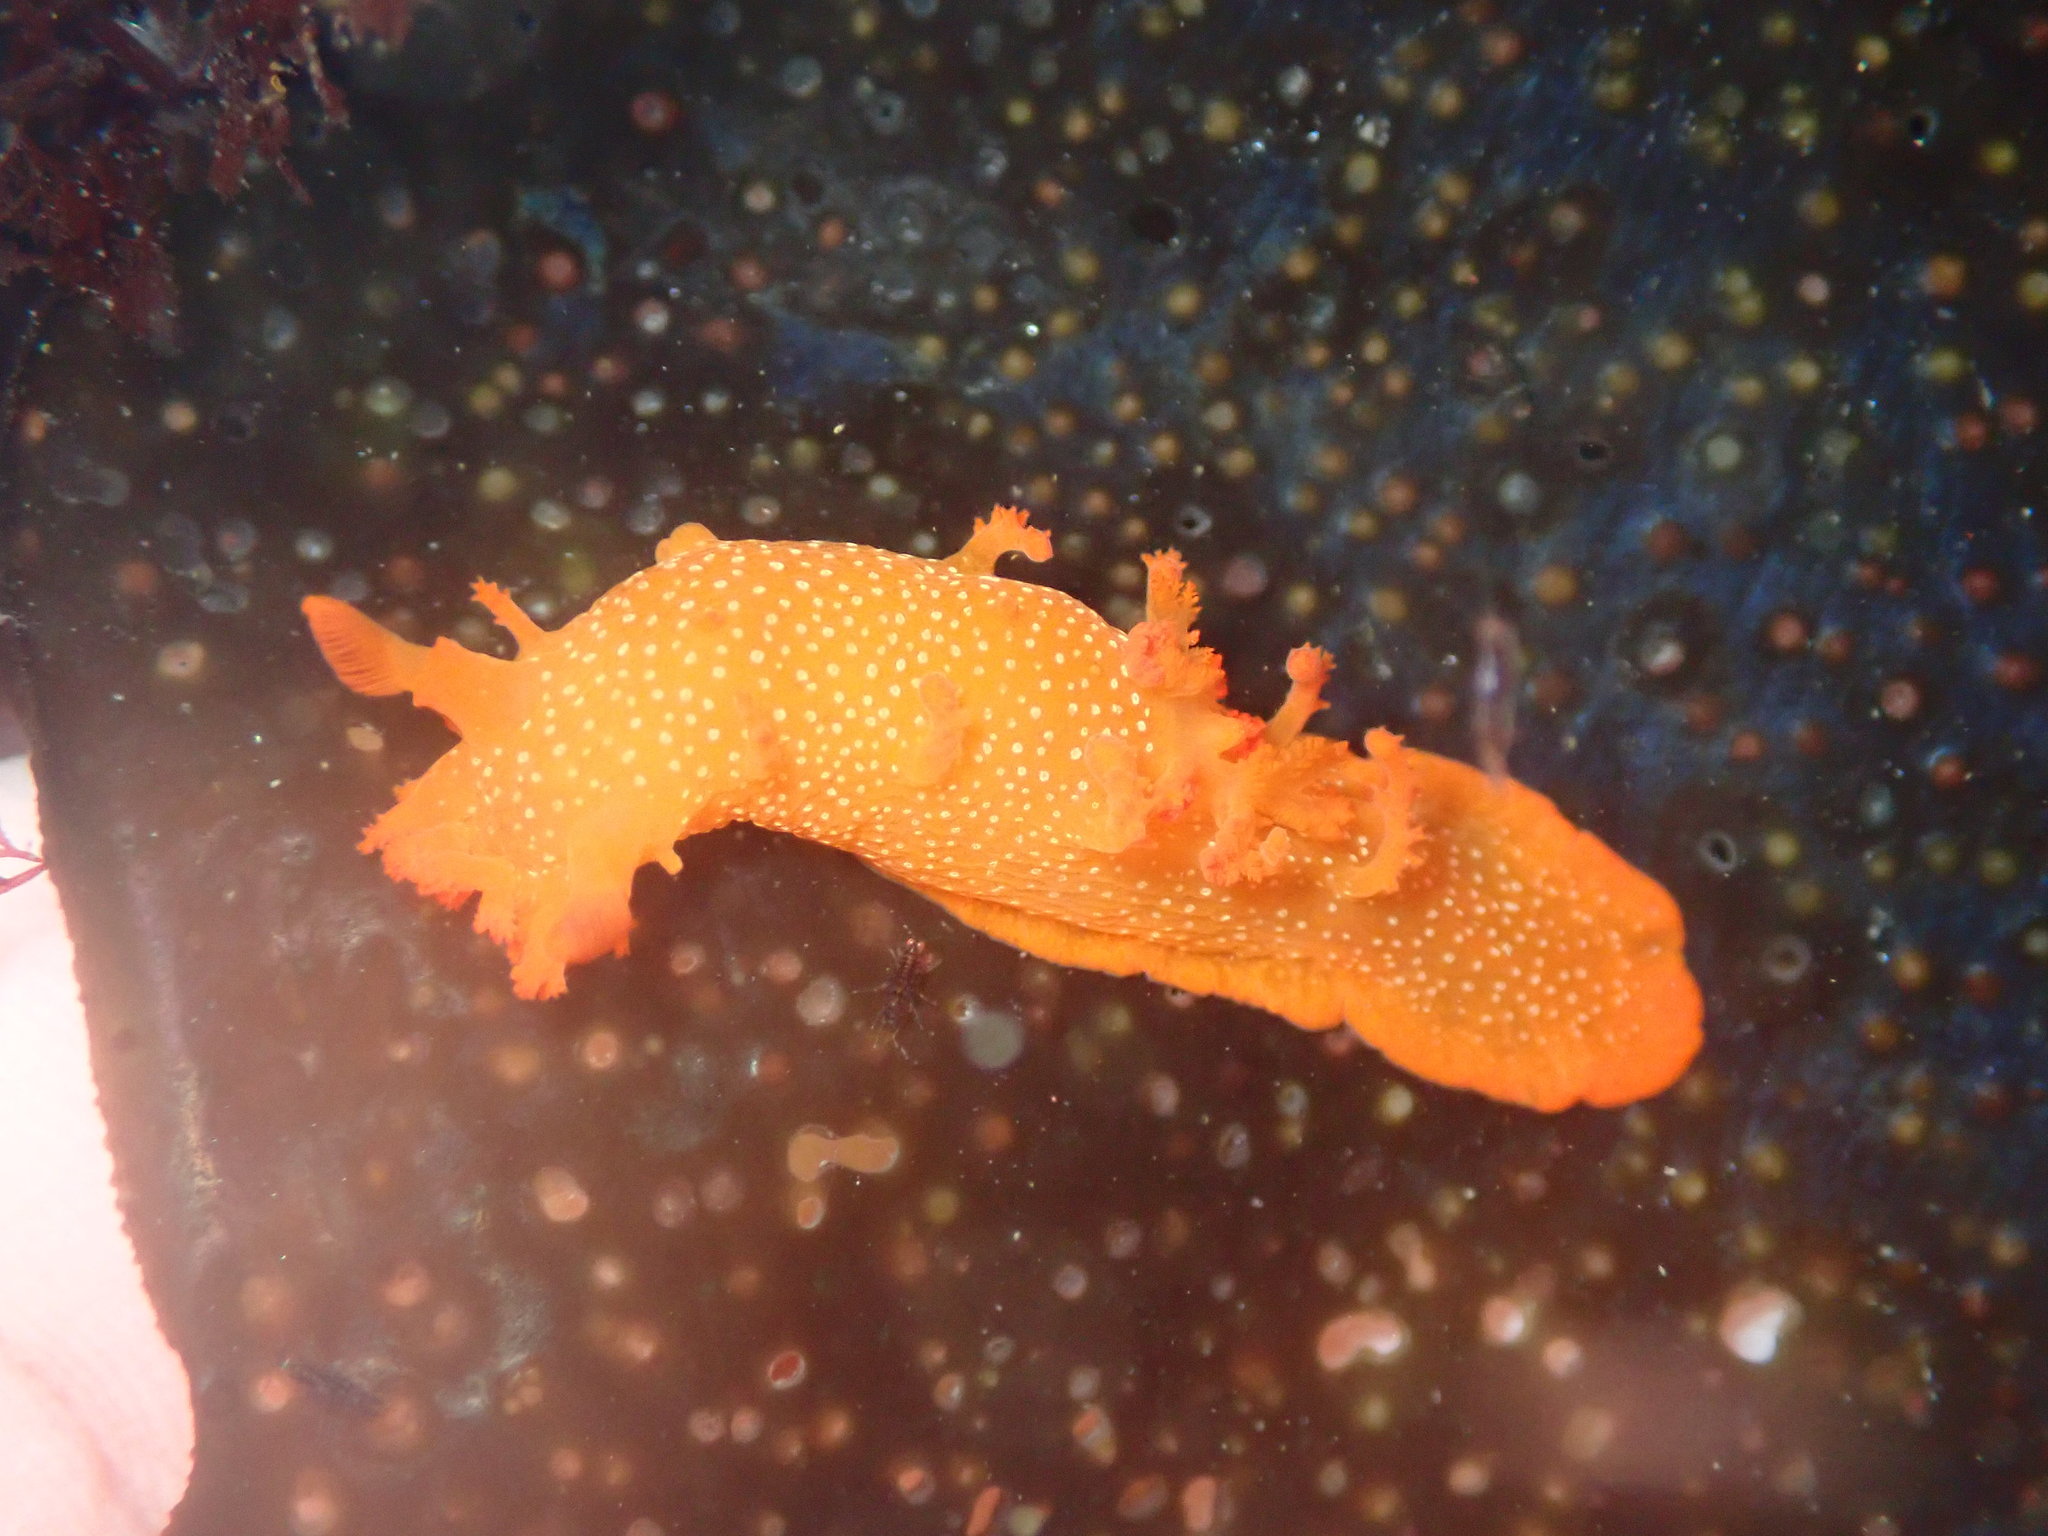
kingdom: Animalia
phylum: Mollusca
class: Gastropoda
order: Nudibranchia
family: Polyceridae
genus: Triopha
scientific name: Triopha maculata
